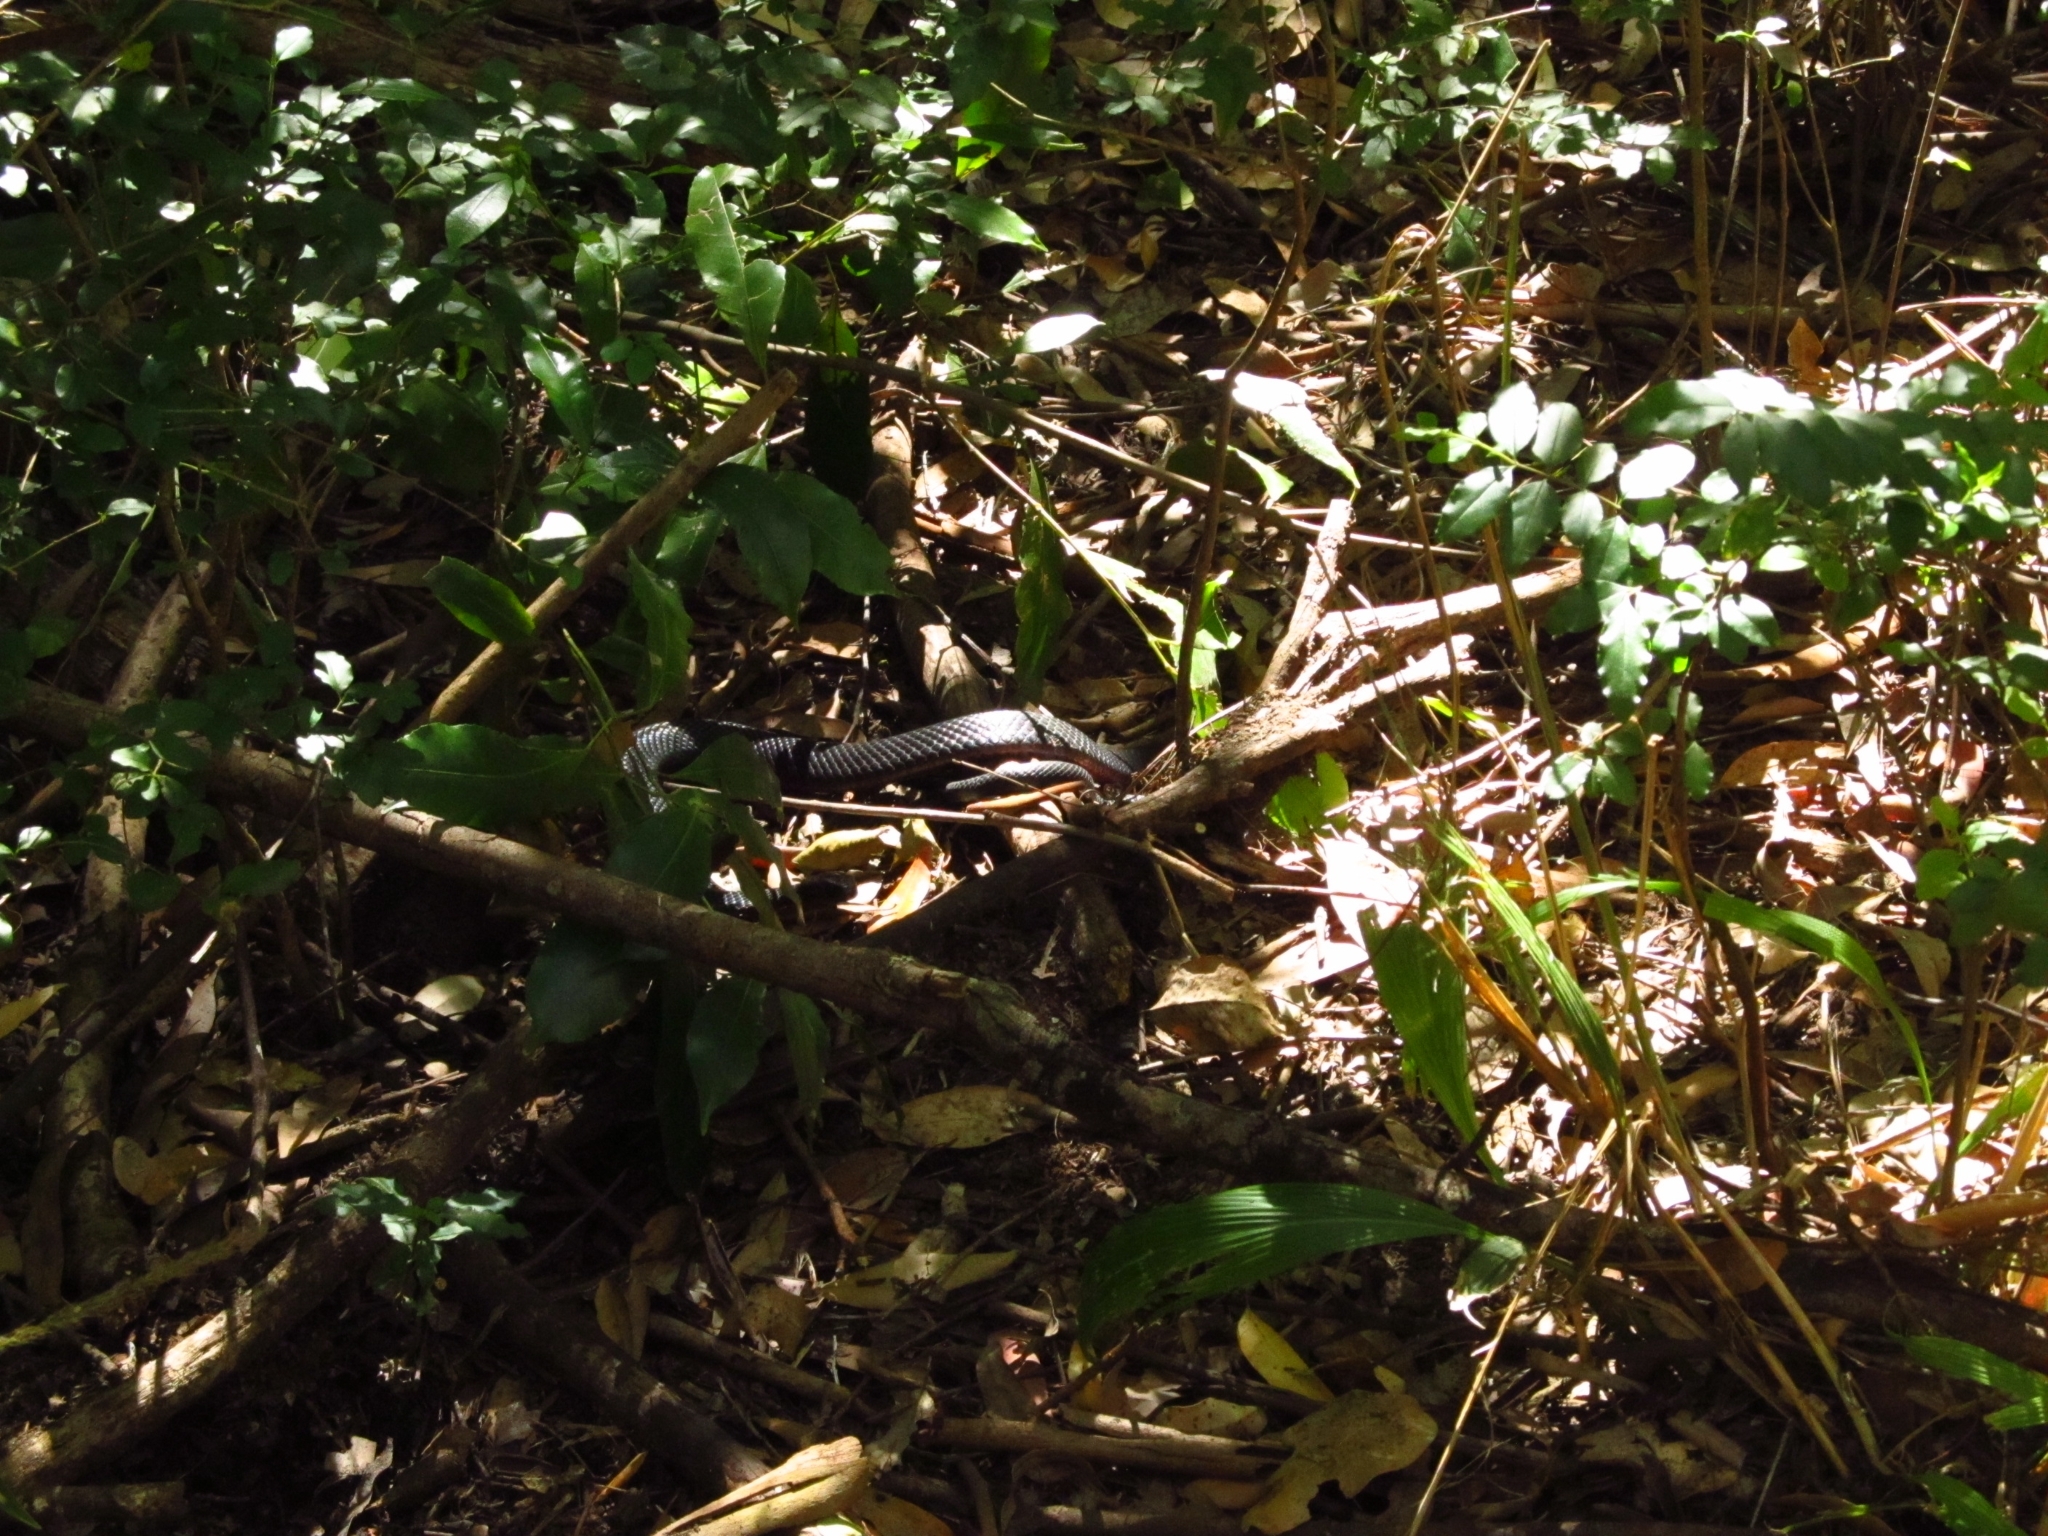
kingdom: Animalia
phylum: Chordata
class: Squamata
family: Elapidae
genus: Pseudechis
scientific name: Pseudechis porphyriacus
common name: Australian black snake
